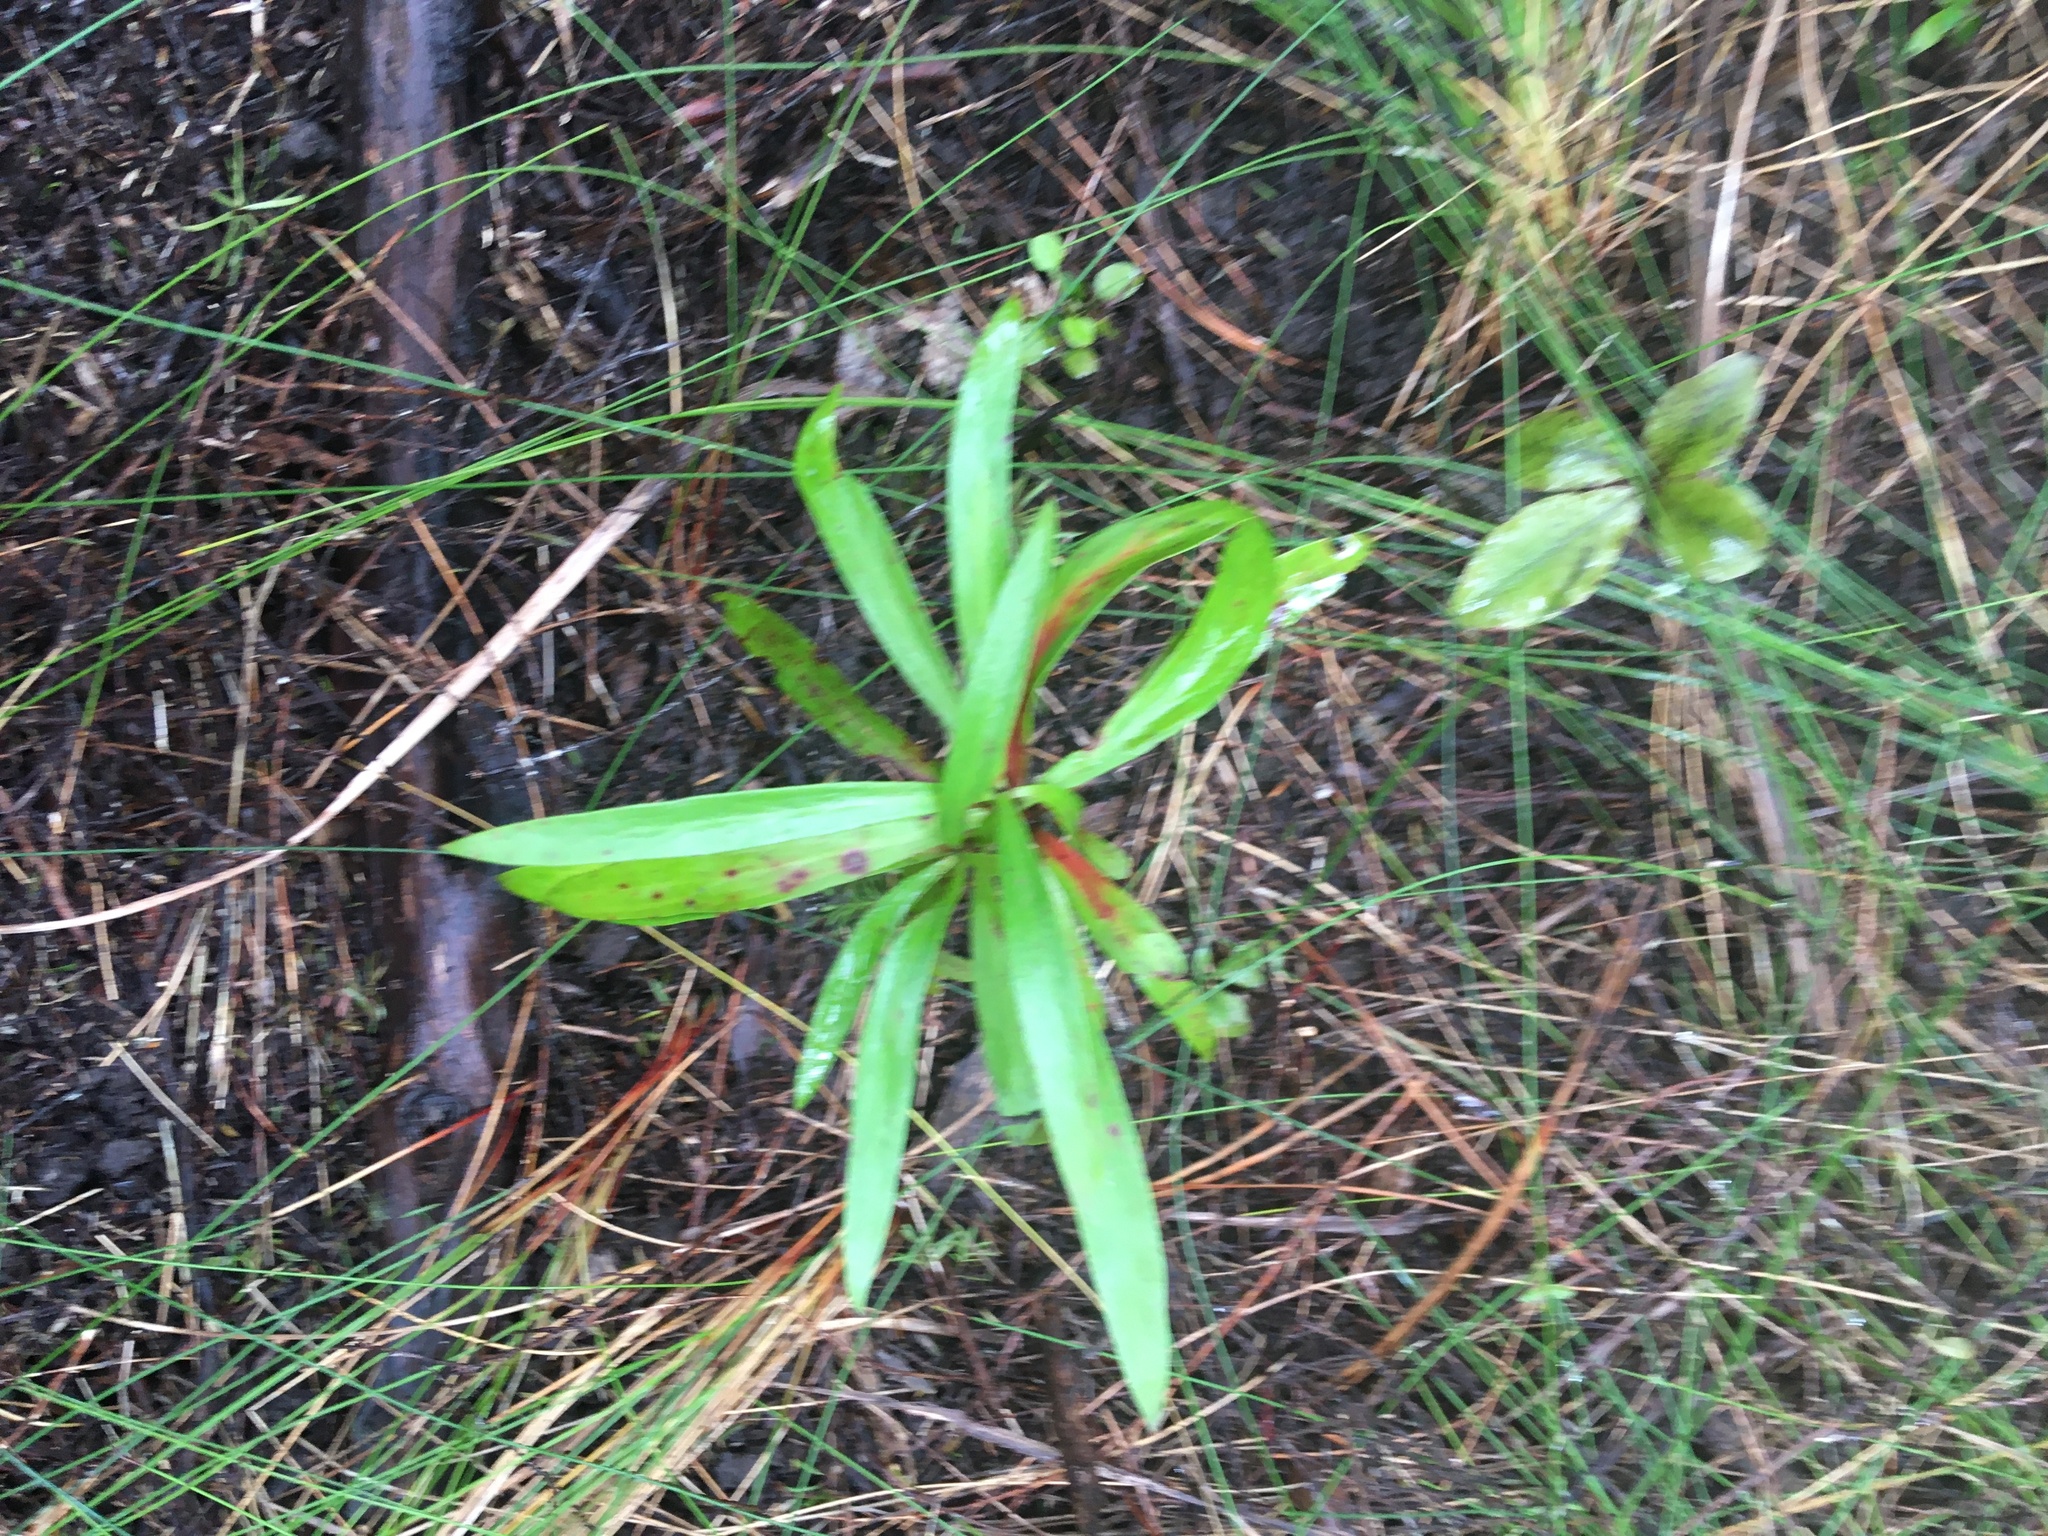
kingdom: Plantae
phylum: Tracheophyta
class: Magnoliopsida
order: Proteales
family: Proteaceae
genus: Toronia
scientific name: Toronia toru
